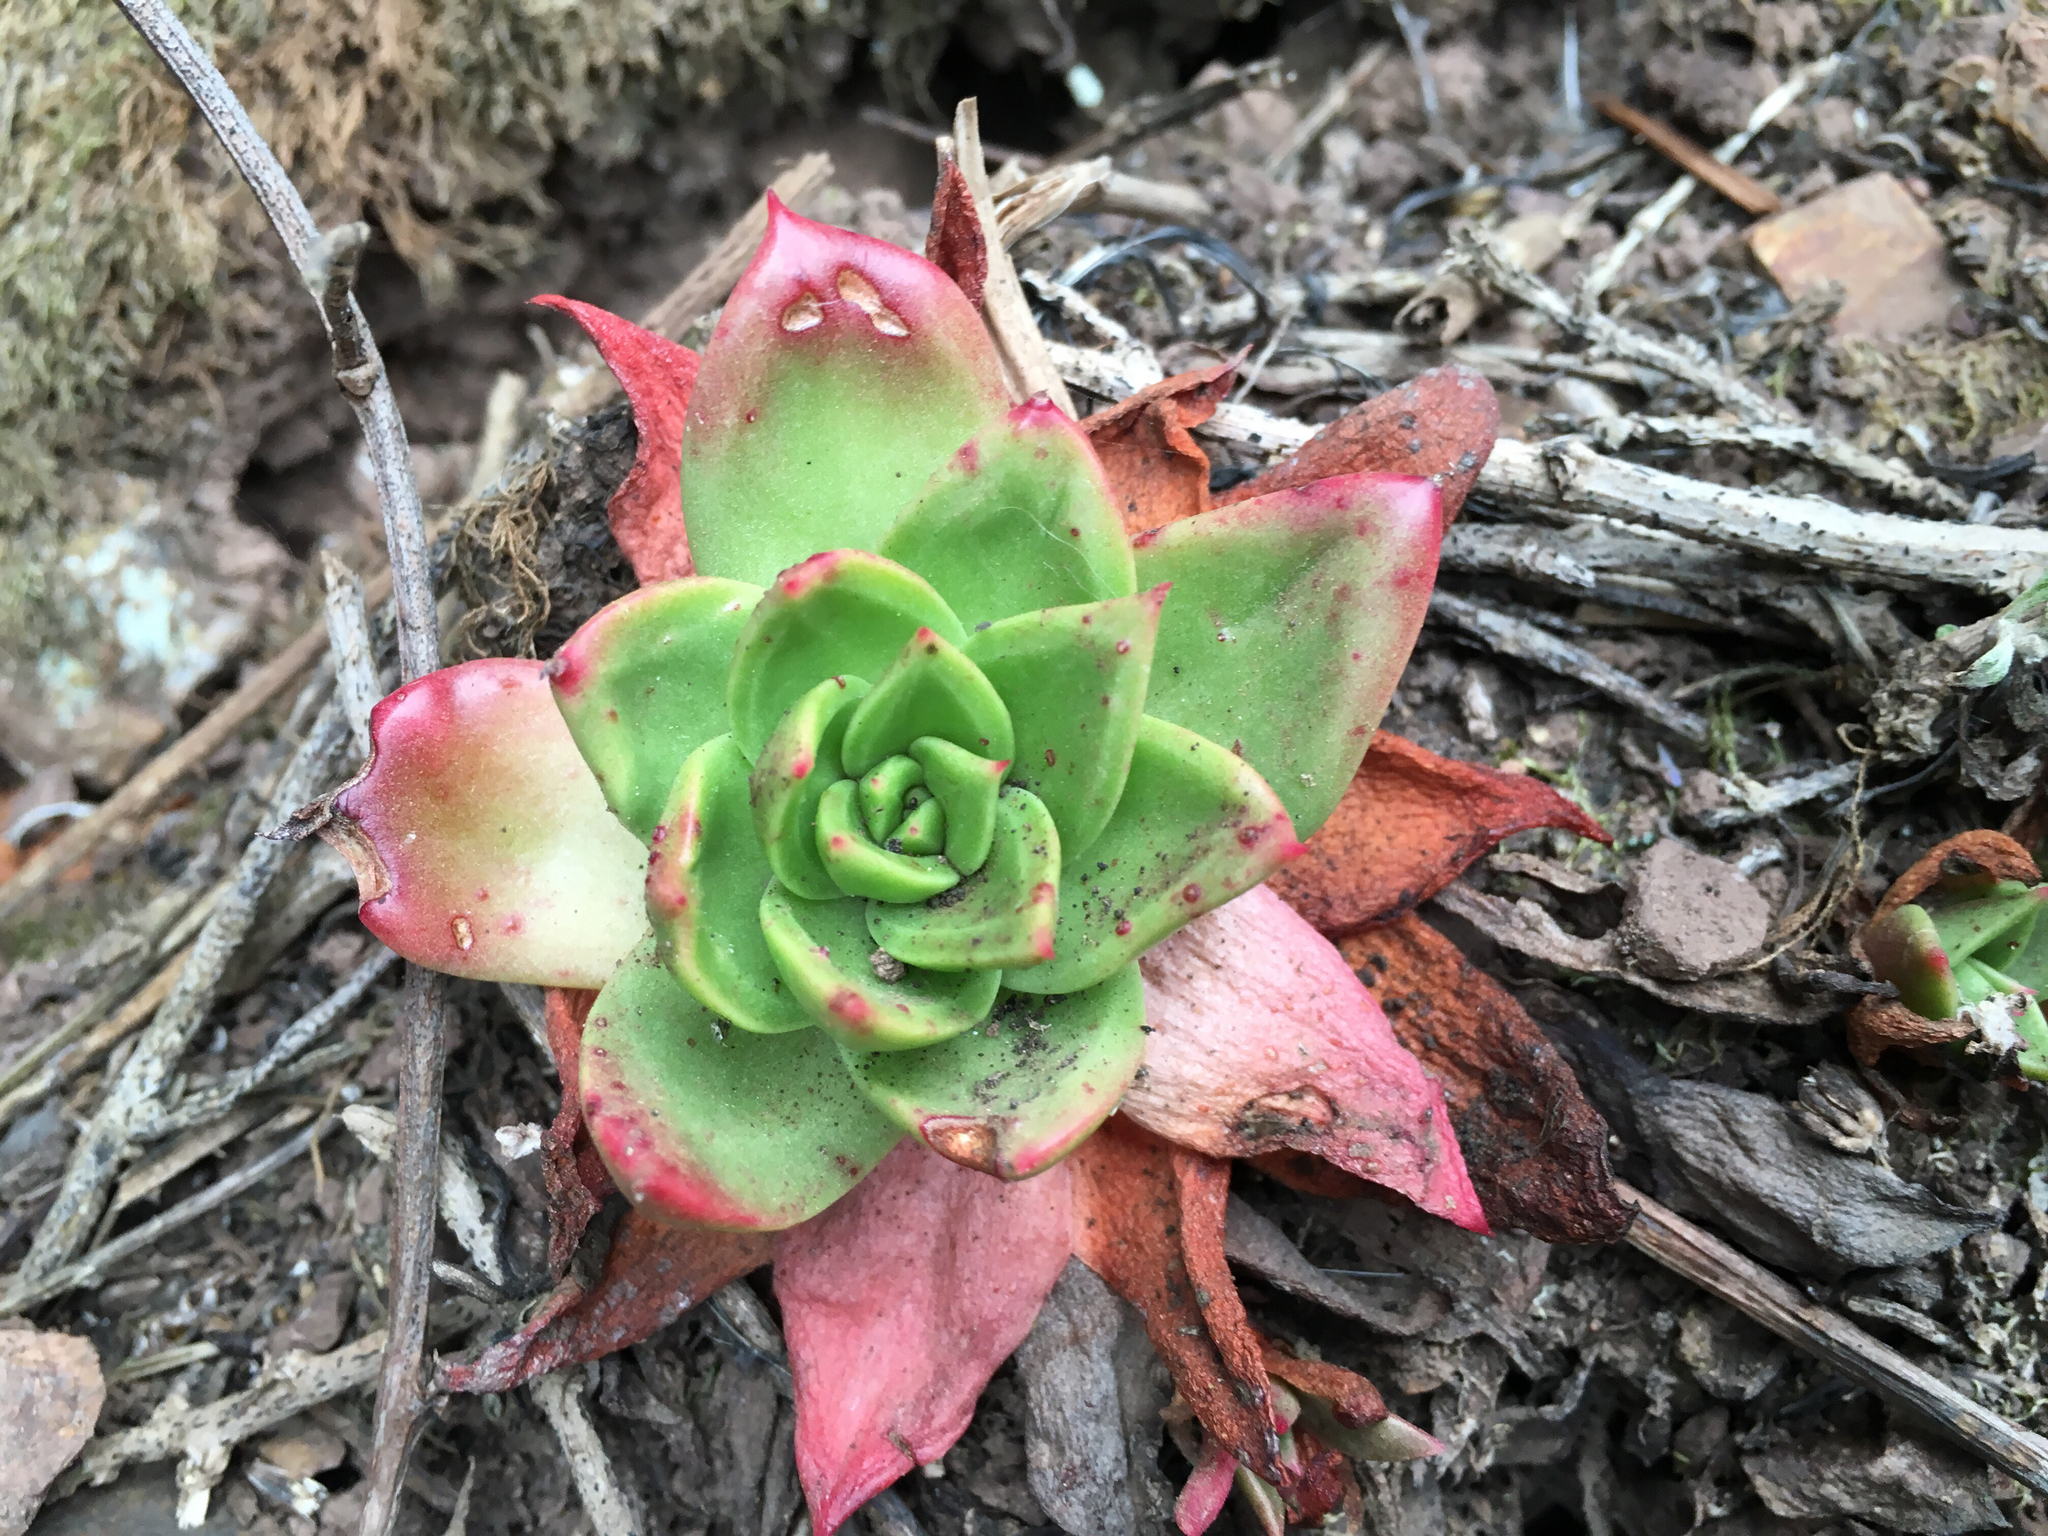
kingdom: Plantae
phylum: Tracheophyta
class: Magnoliopsida
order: Saxifragales
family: Crassulaceae
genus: Dudleya
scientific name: Dudleya farinosa
